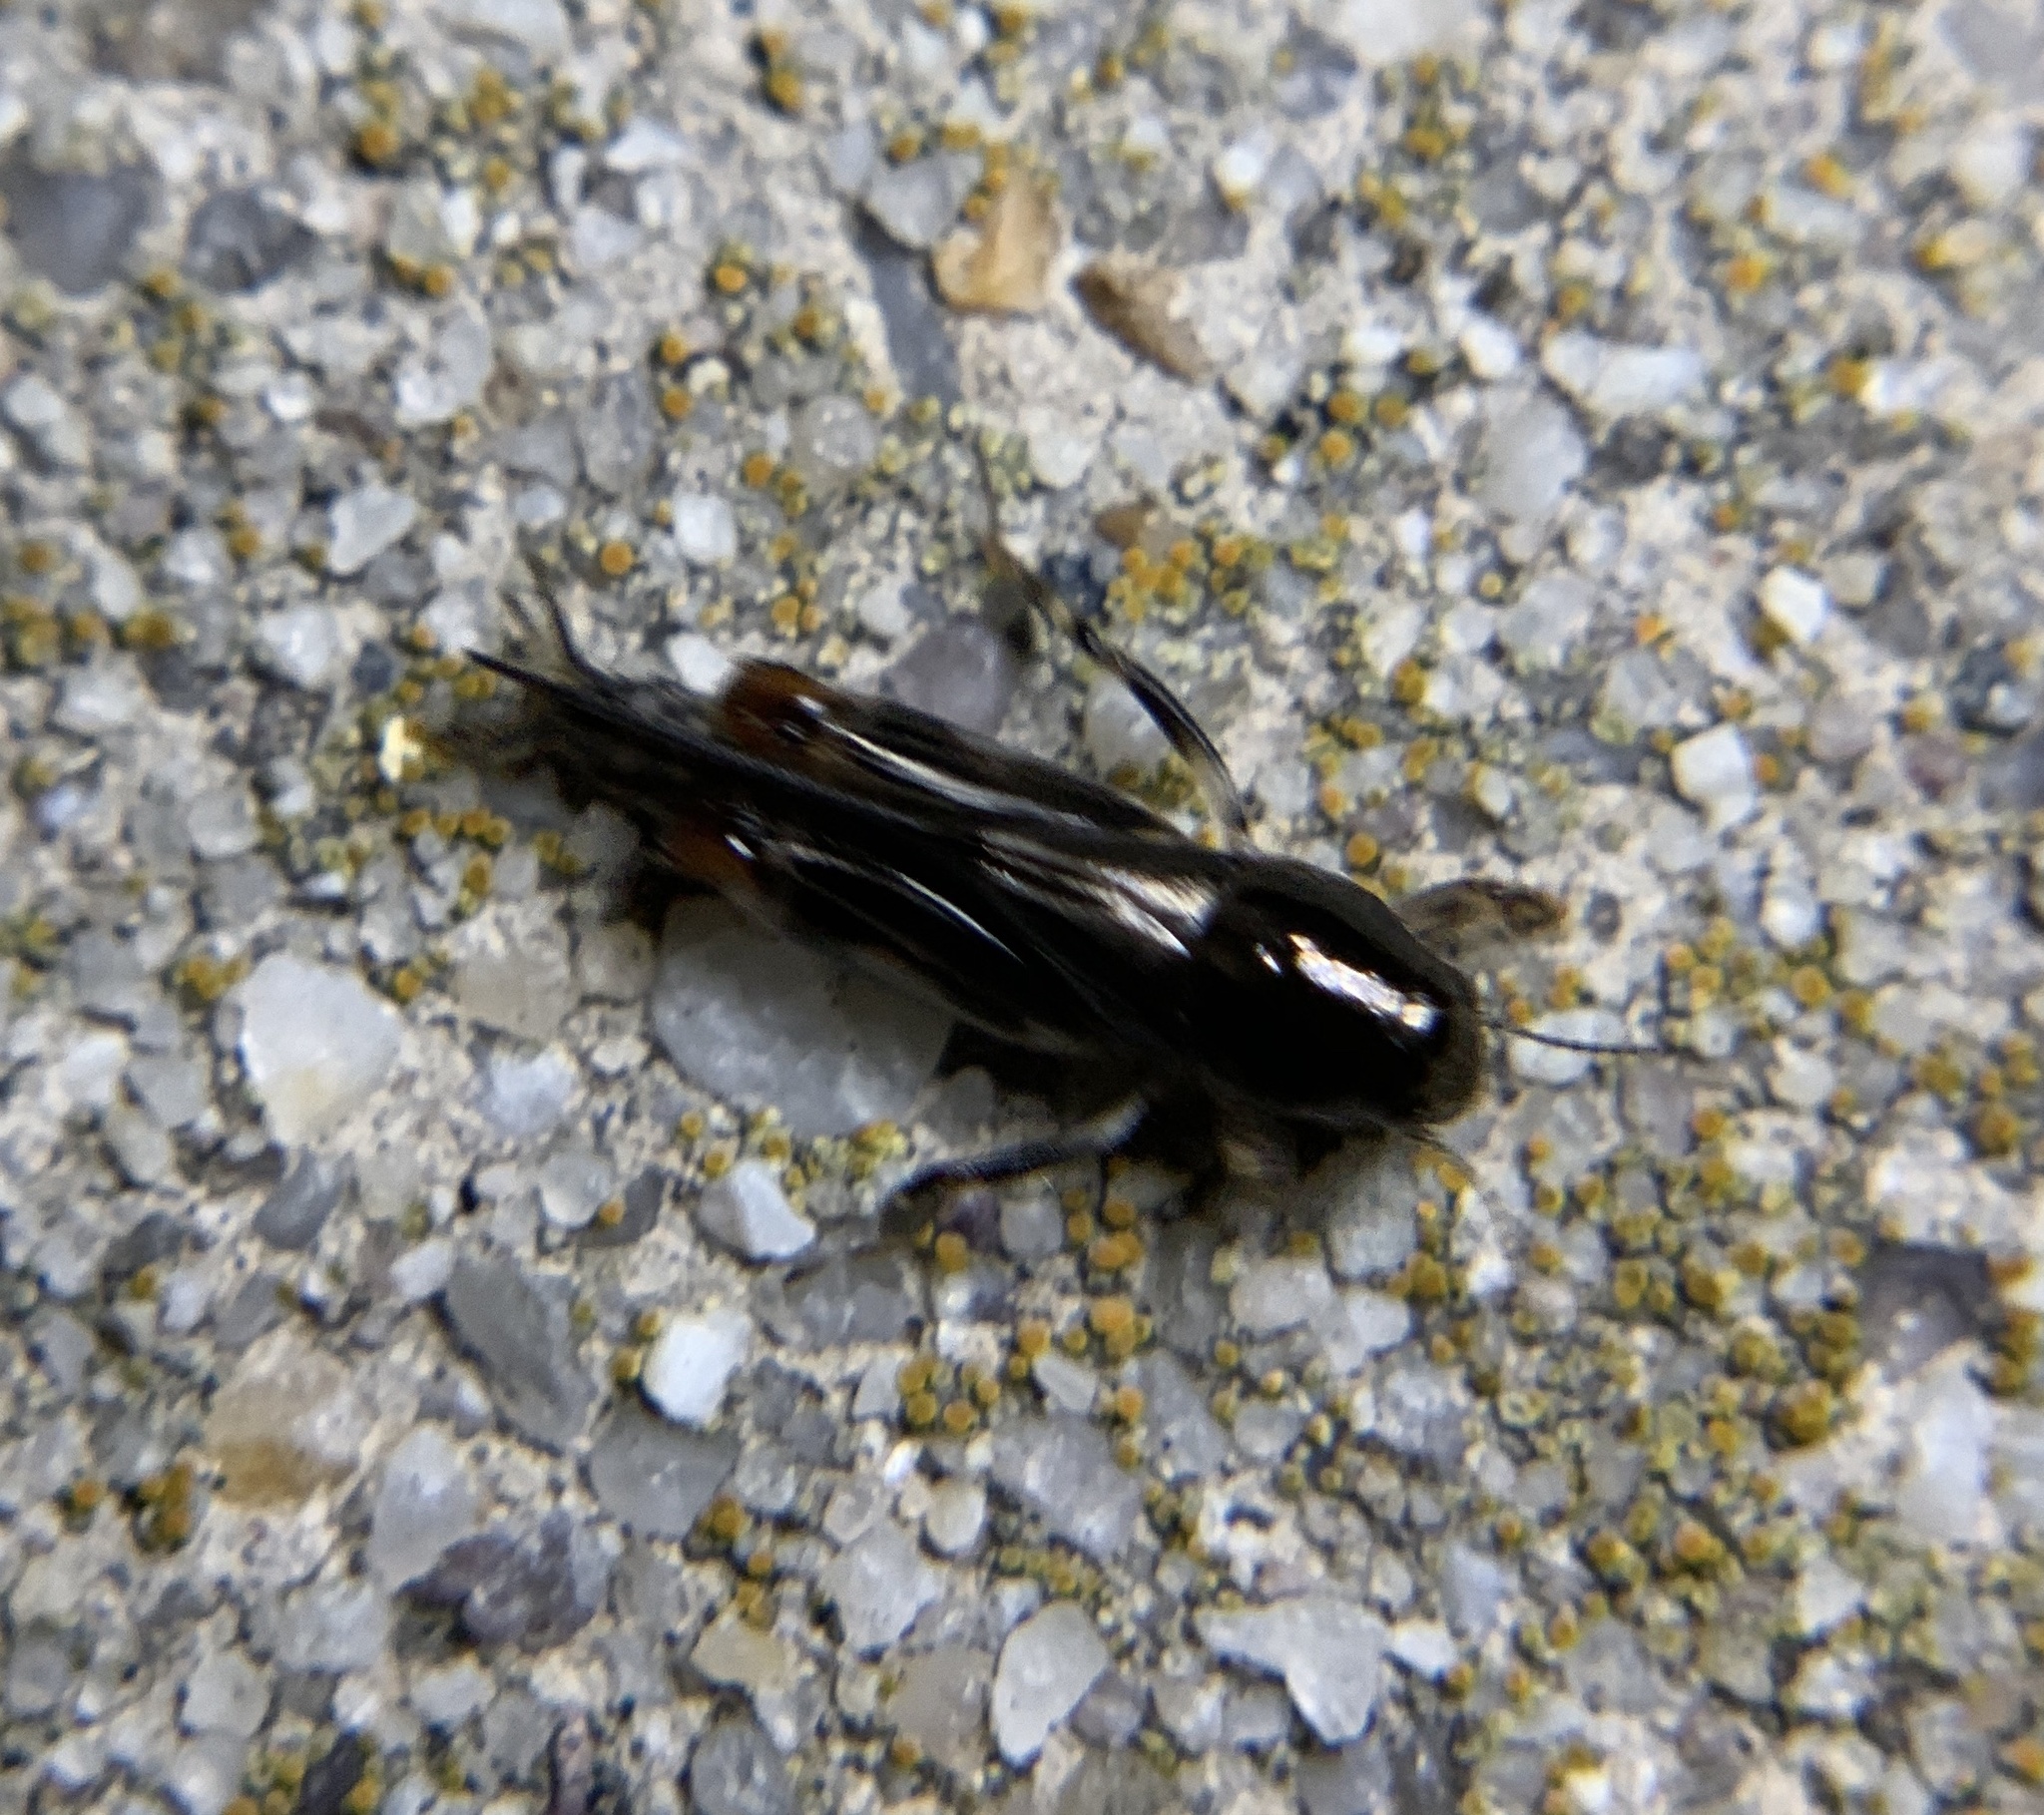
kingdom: Animalia
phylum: Arthropoda
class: Insecta
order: Orthoptera
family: Tridactylidae
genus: Neotridactylus
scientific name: Neotridactylus apicialis
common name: Larger pygmy locust
